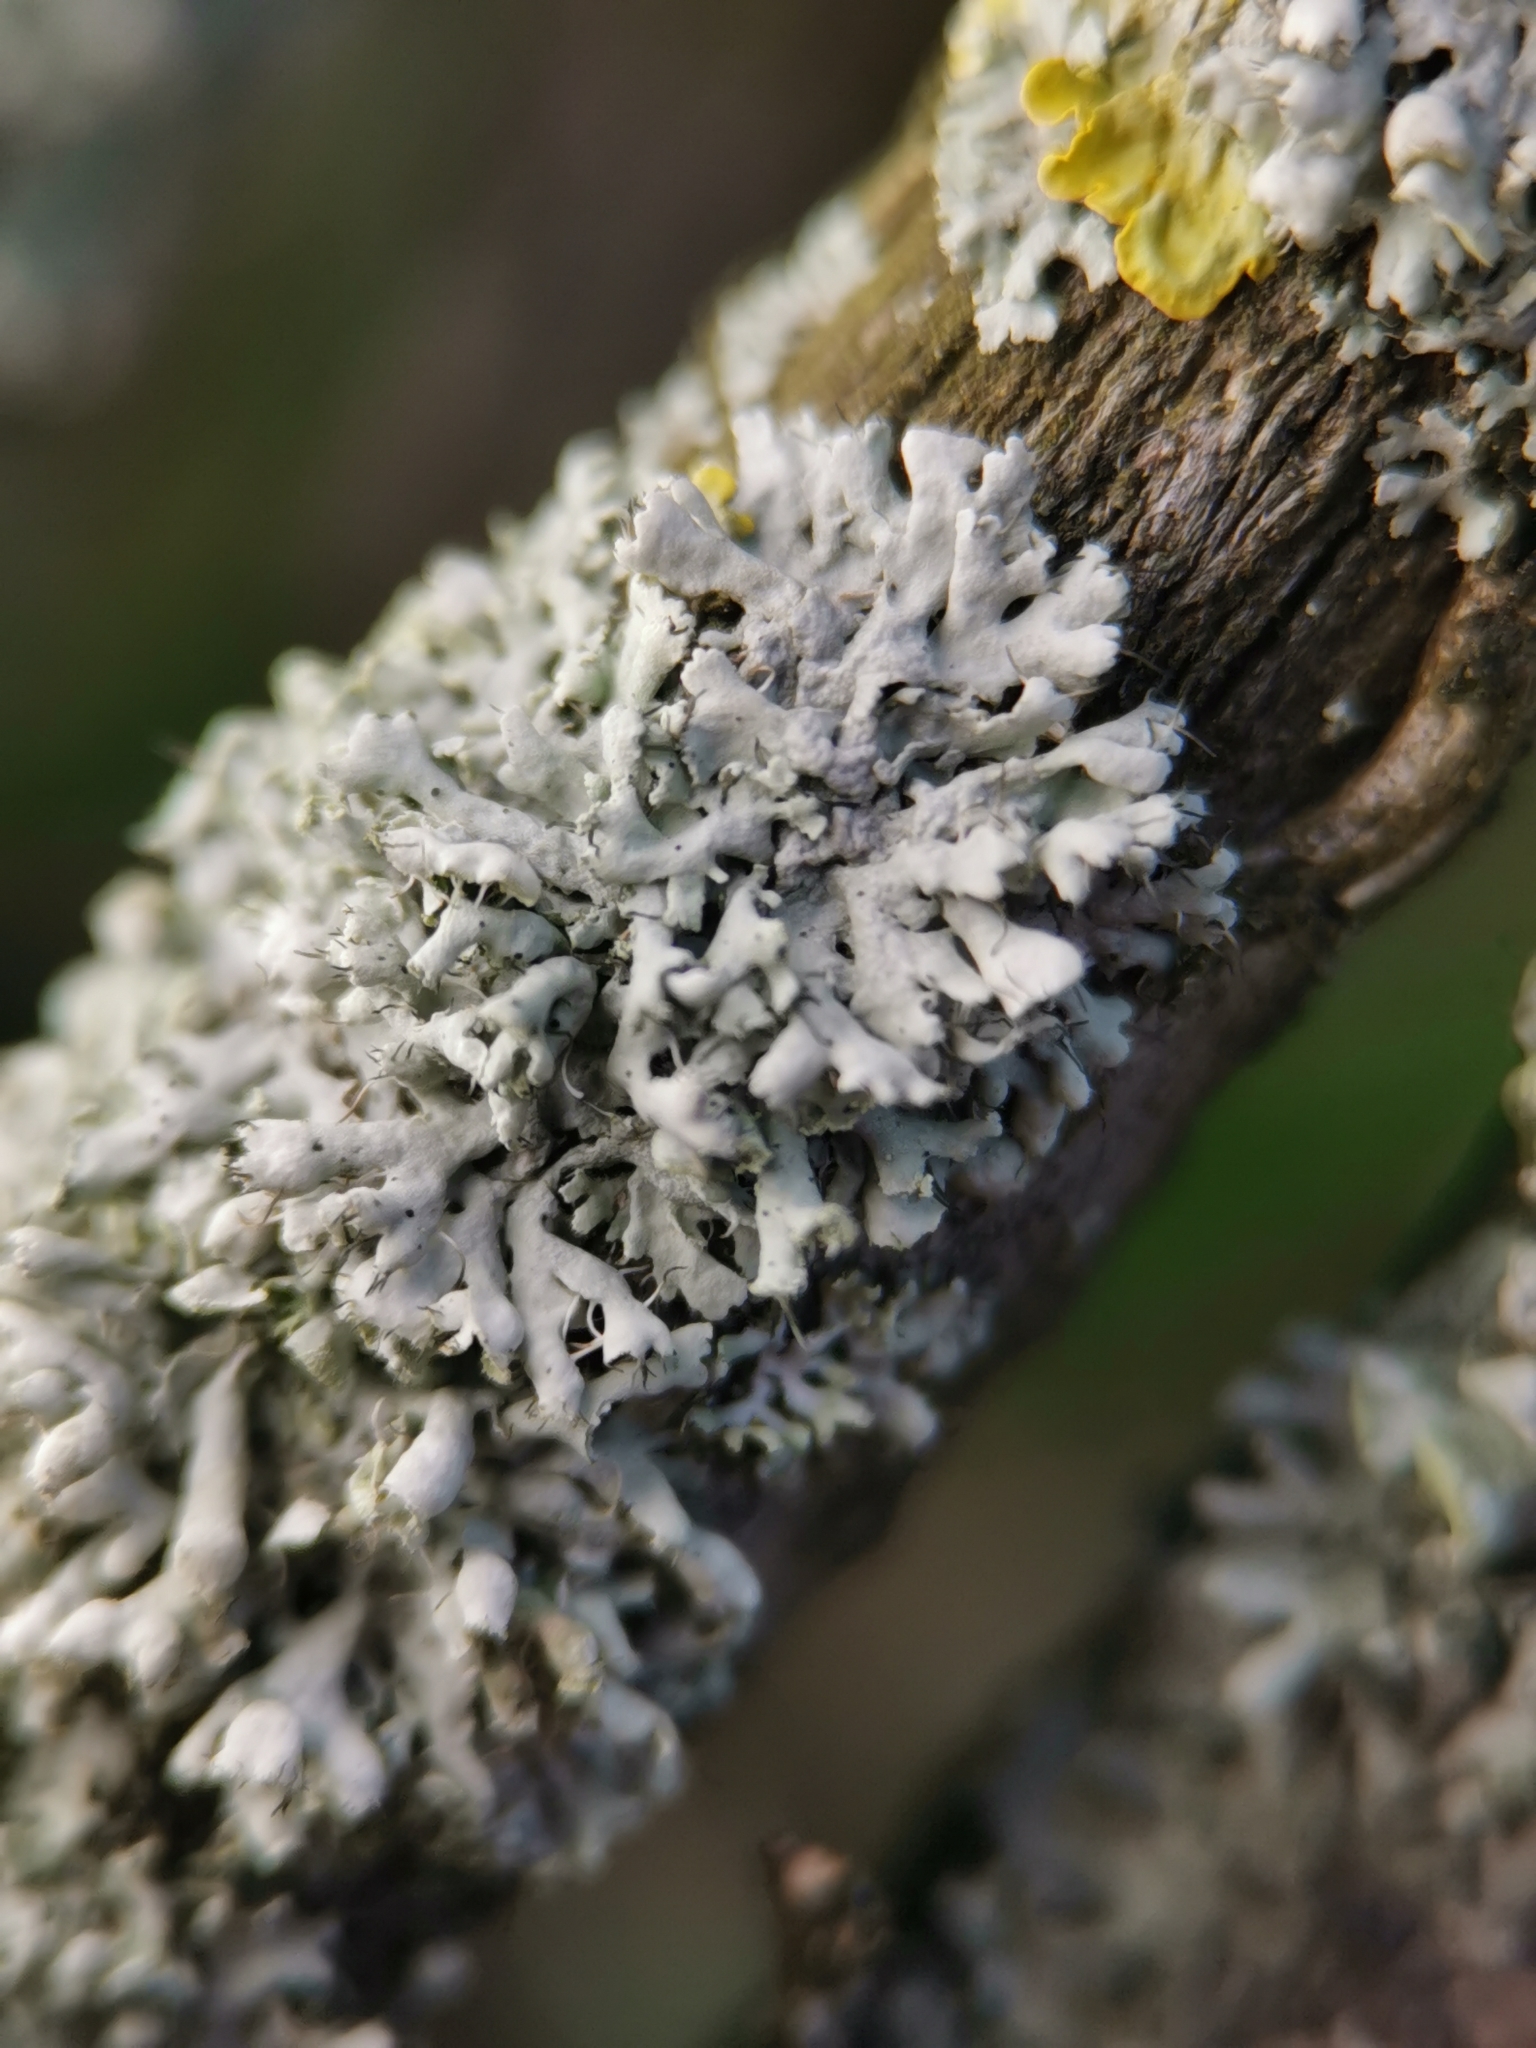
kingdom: Fungi
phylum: Ascomycota
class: Lecanoromycetes
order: Caliciales
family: Physciaceae
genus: Physcia
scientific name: Physcia adscendens
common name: Hooded rosette lichen
